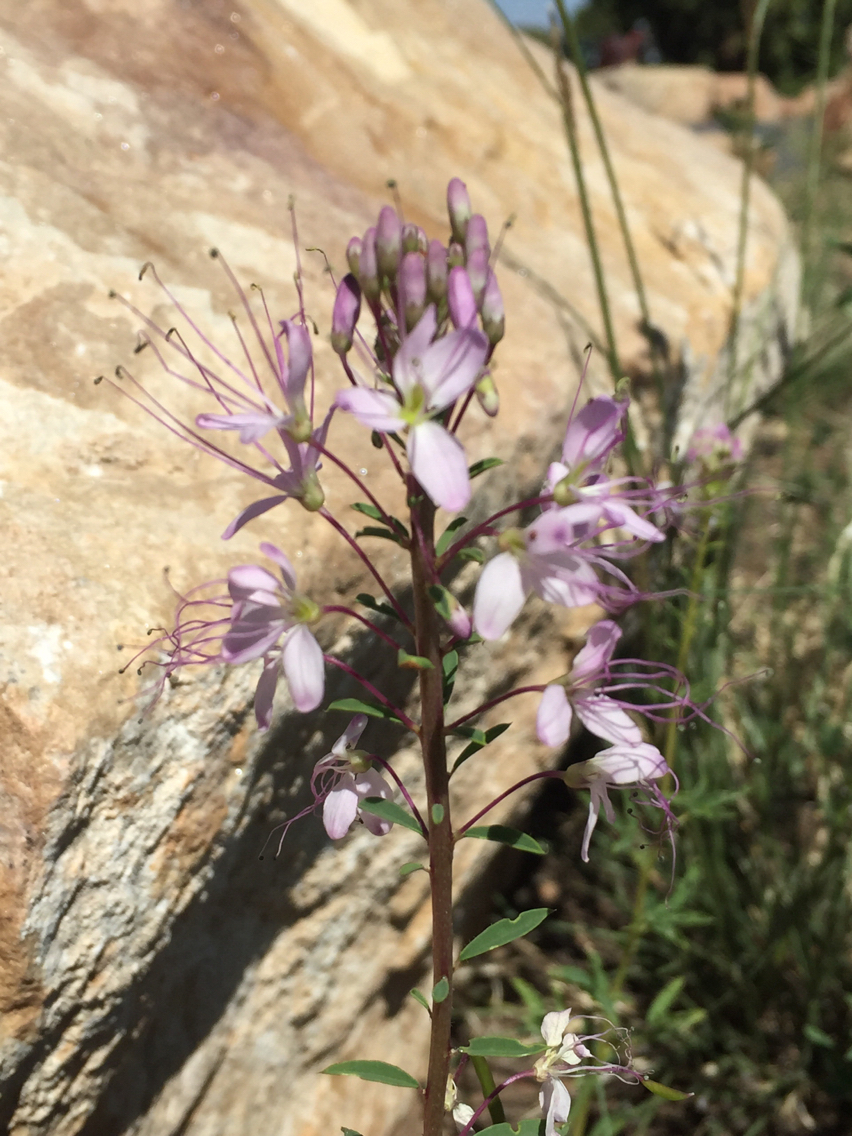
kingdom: Plantae
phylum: Tracheophyta
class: Magnoliopsida
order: Brassicales
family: Cleomaceae
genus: Cleomella
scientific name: Cleomella serrulata
